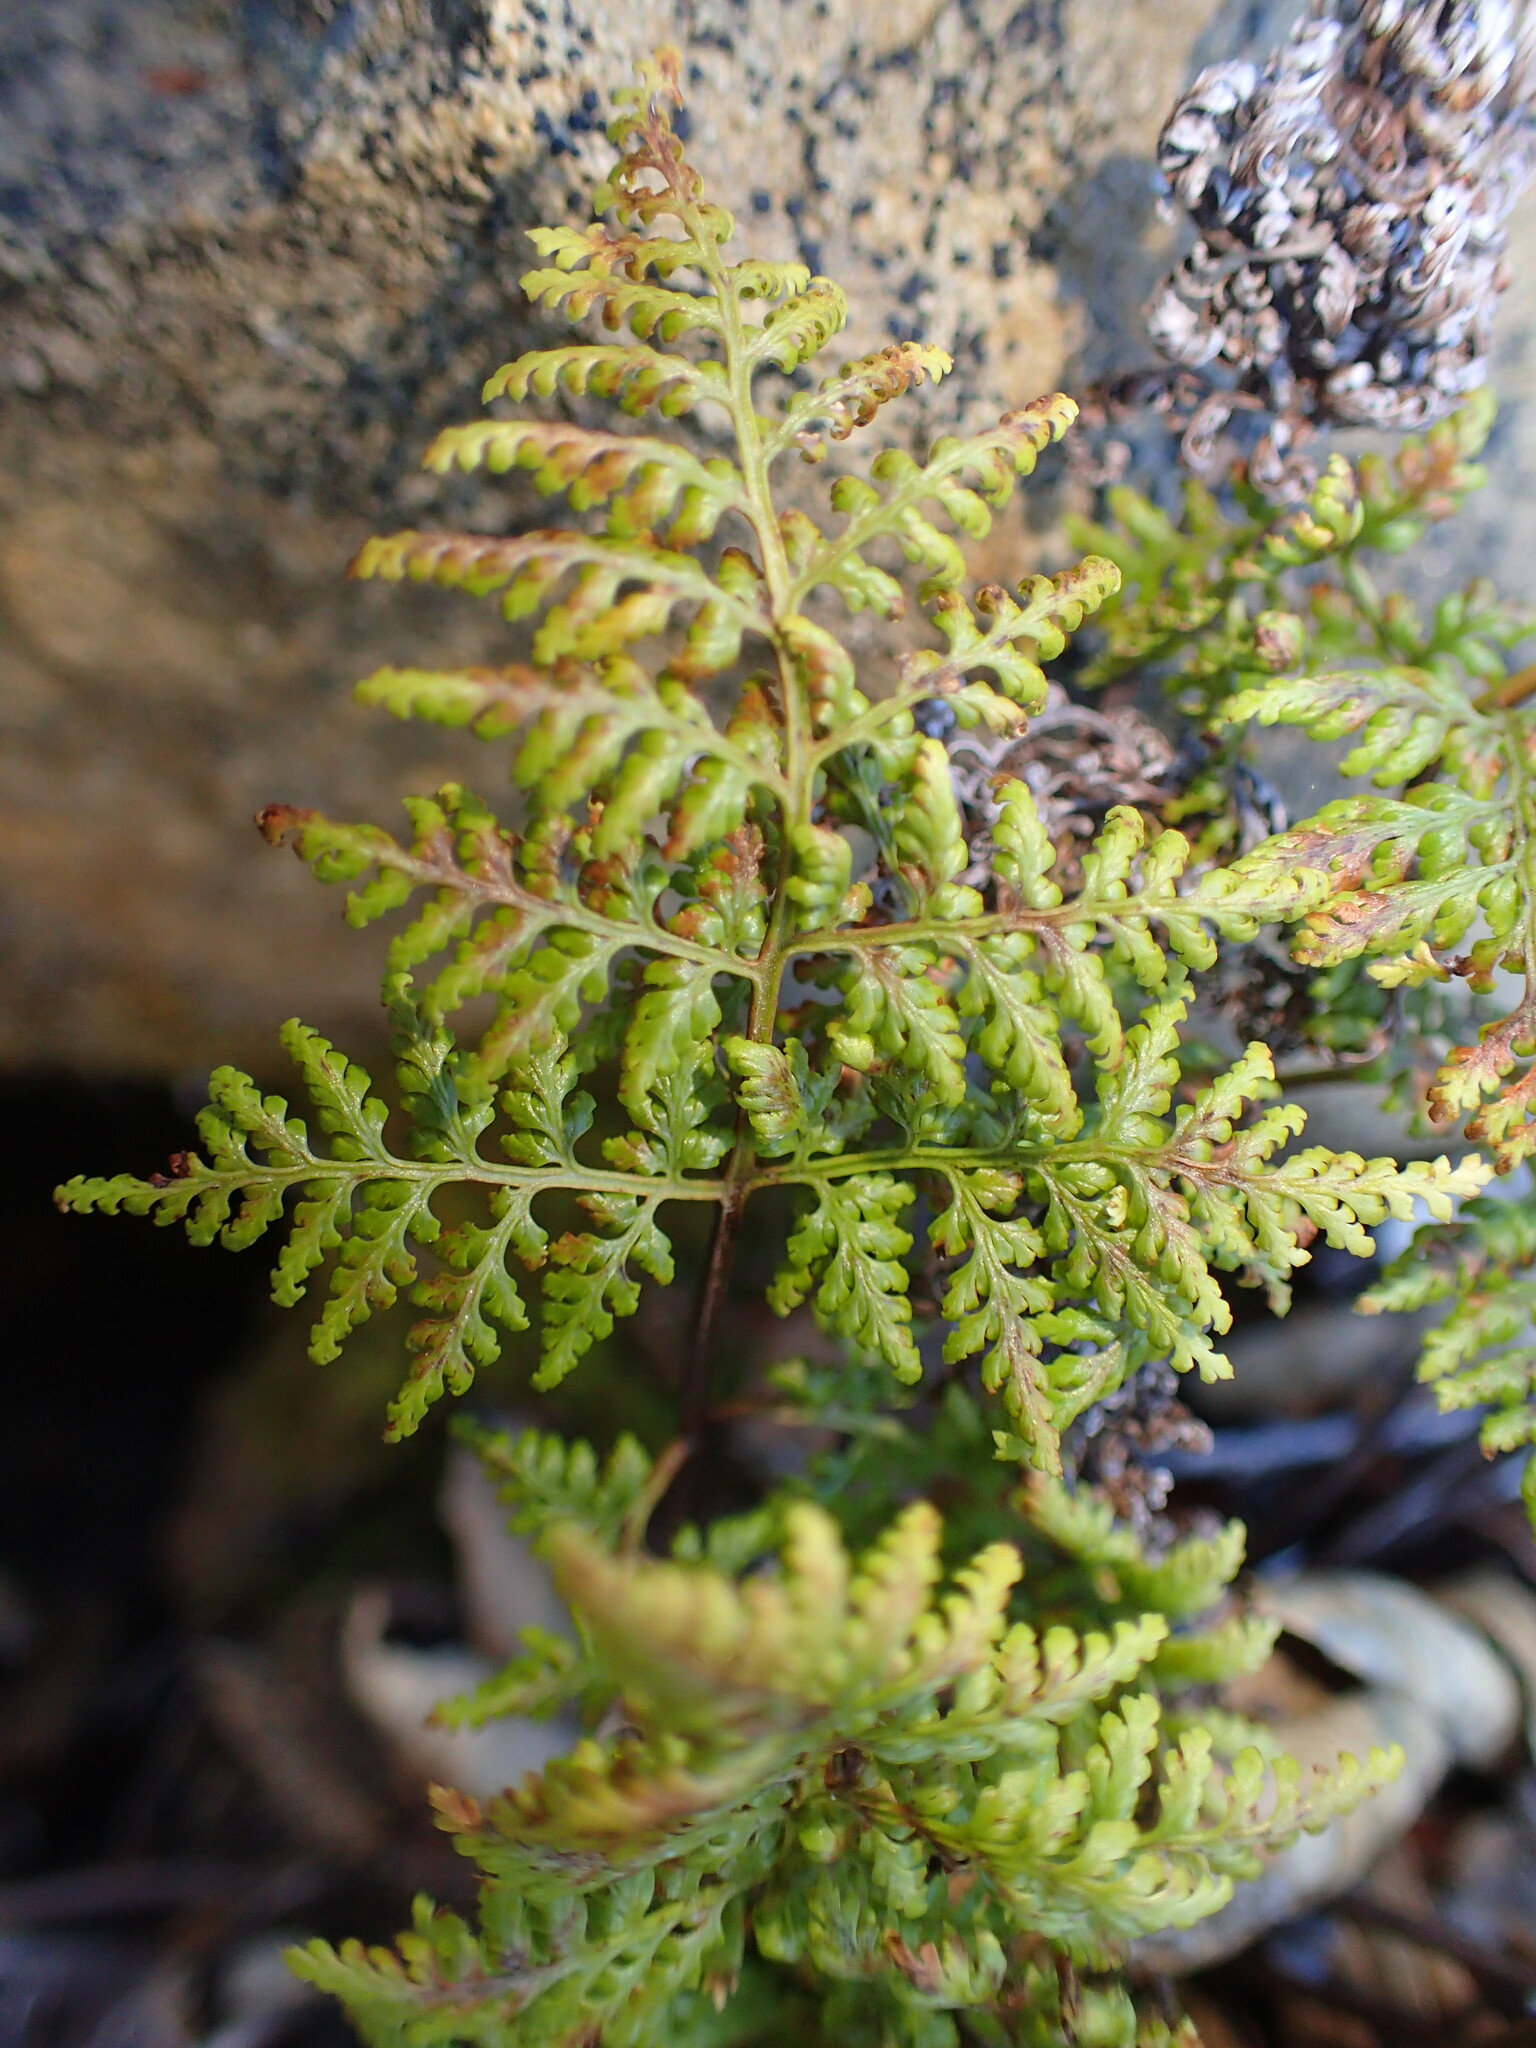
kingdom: Plantae
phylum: Tracheophyta
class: Polypodiopsida
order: Polypodiales
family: Pteridaceae
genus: Aspidotis
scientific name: Aspidotis californica
